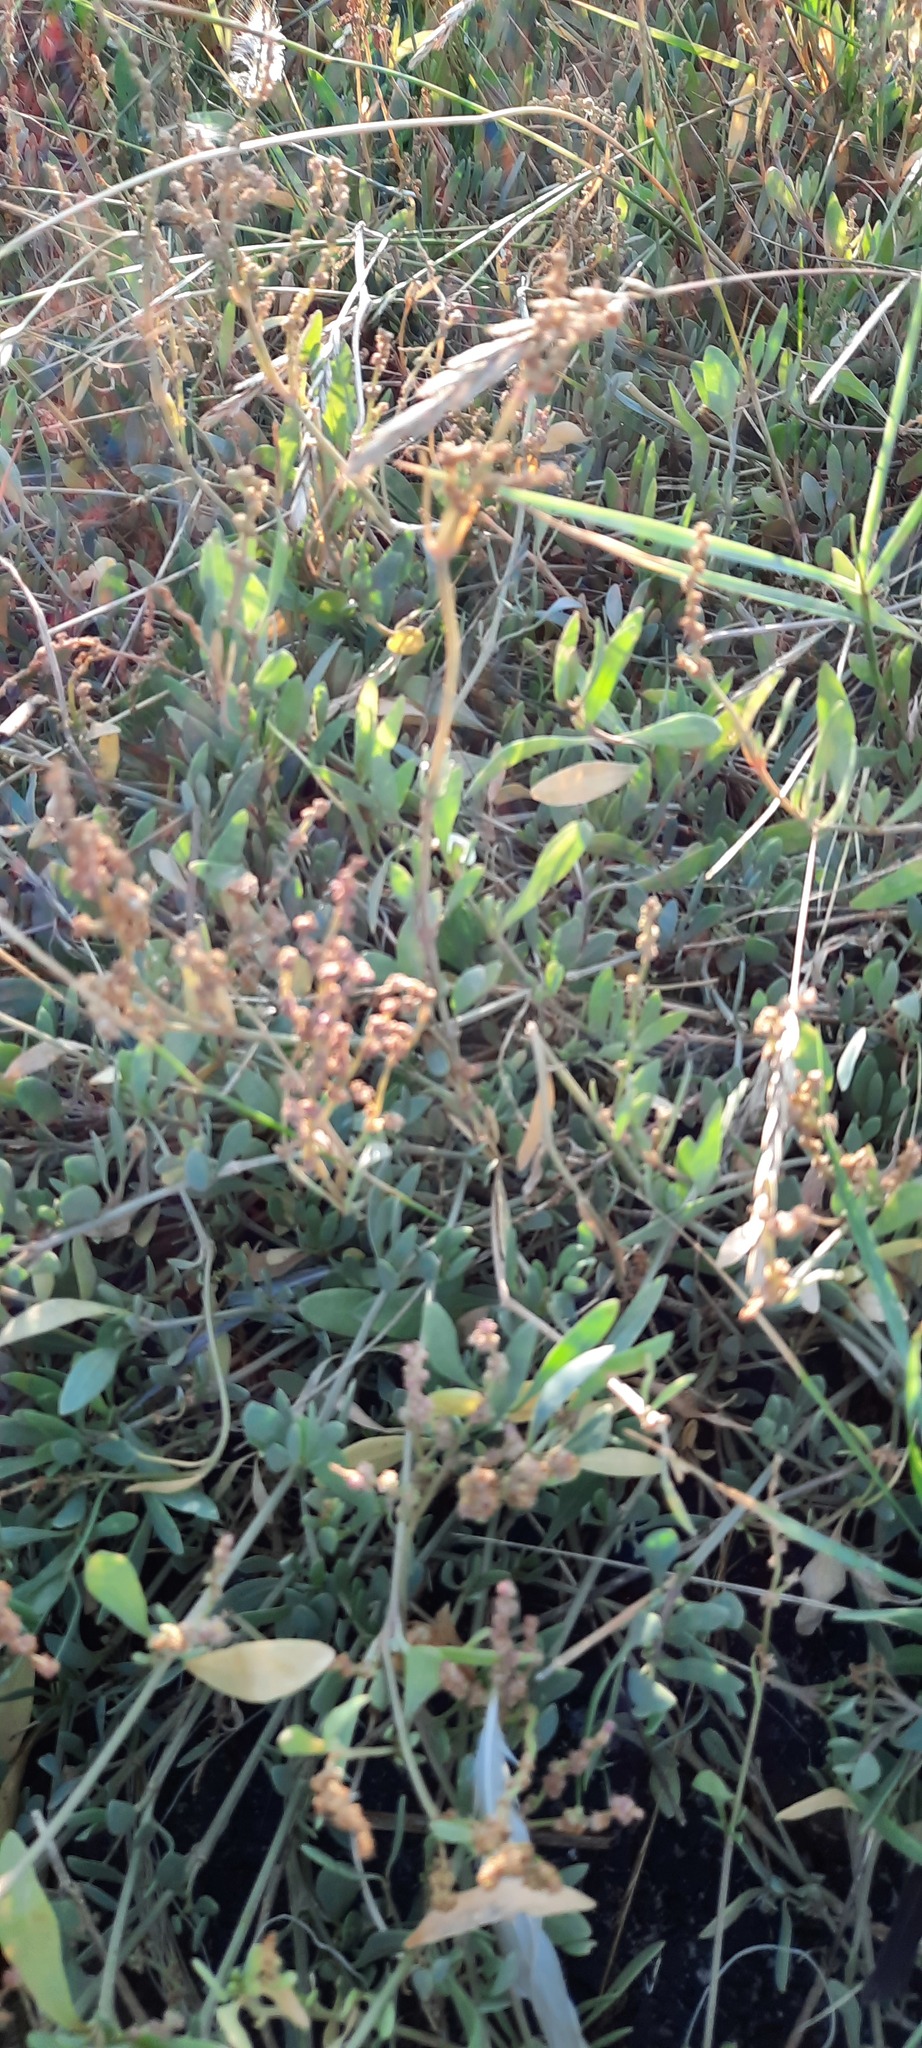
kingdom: Plantae
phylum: Tracheophyta
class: Magnoliopsida
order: Caryophyllales
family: Amaranthaceae
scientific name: Amaranthaceae
